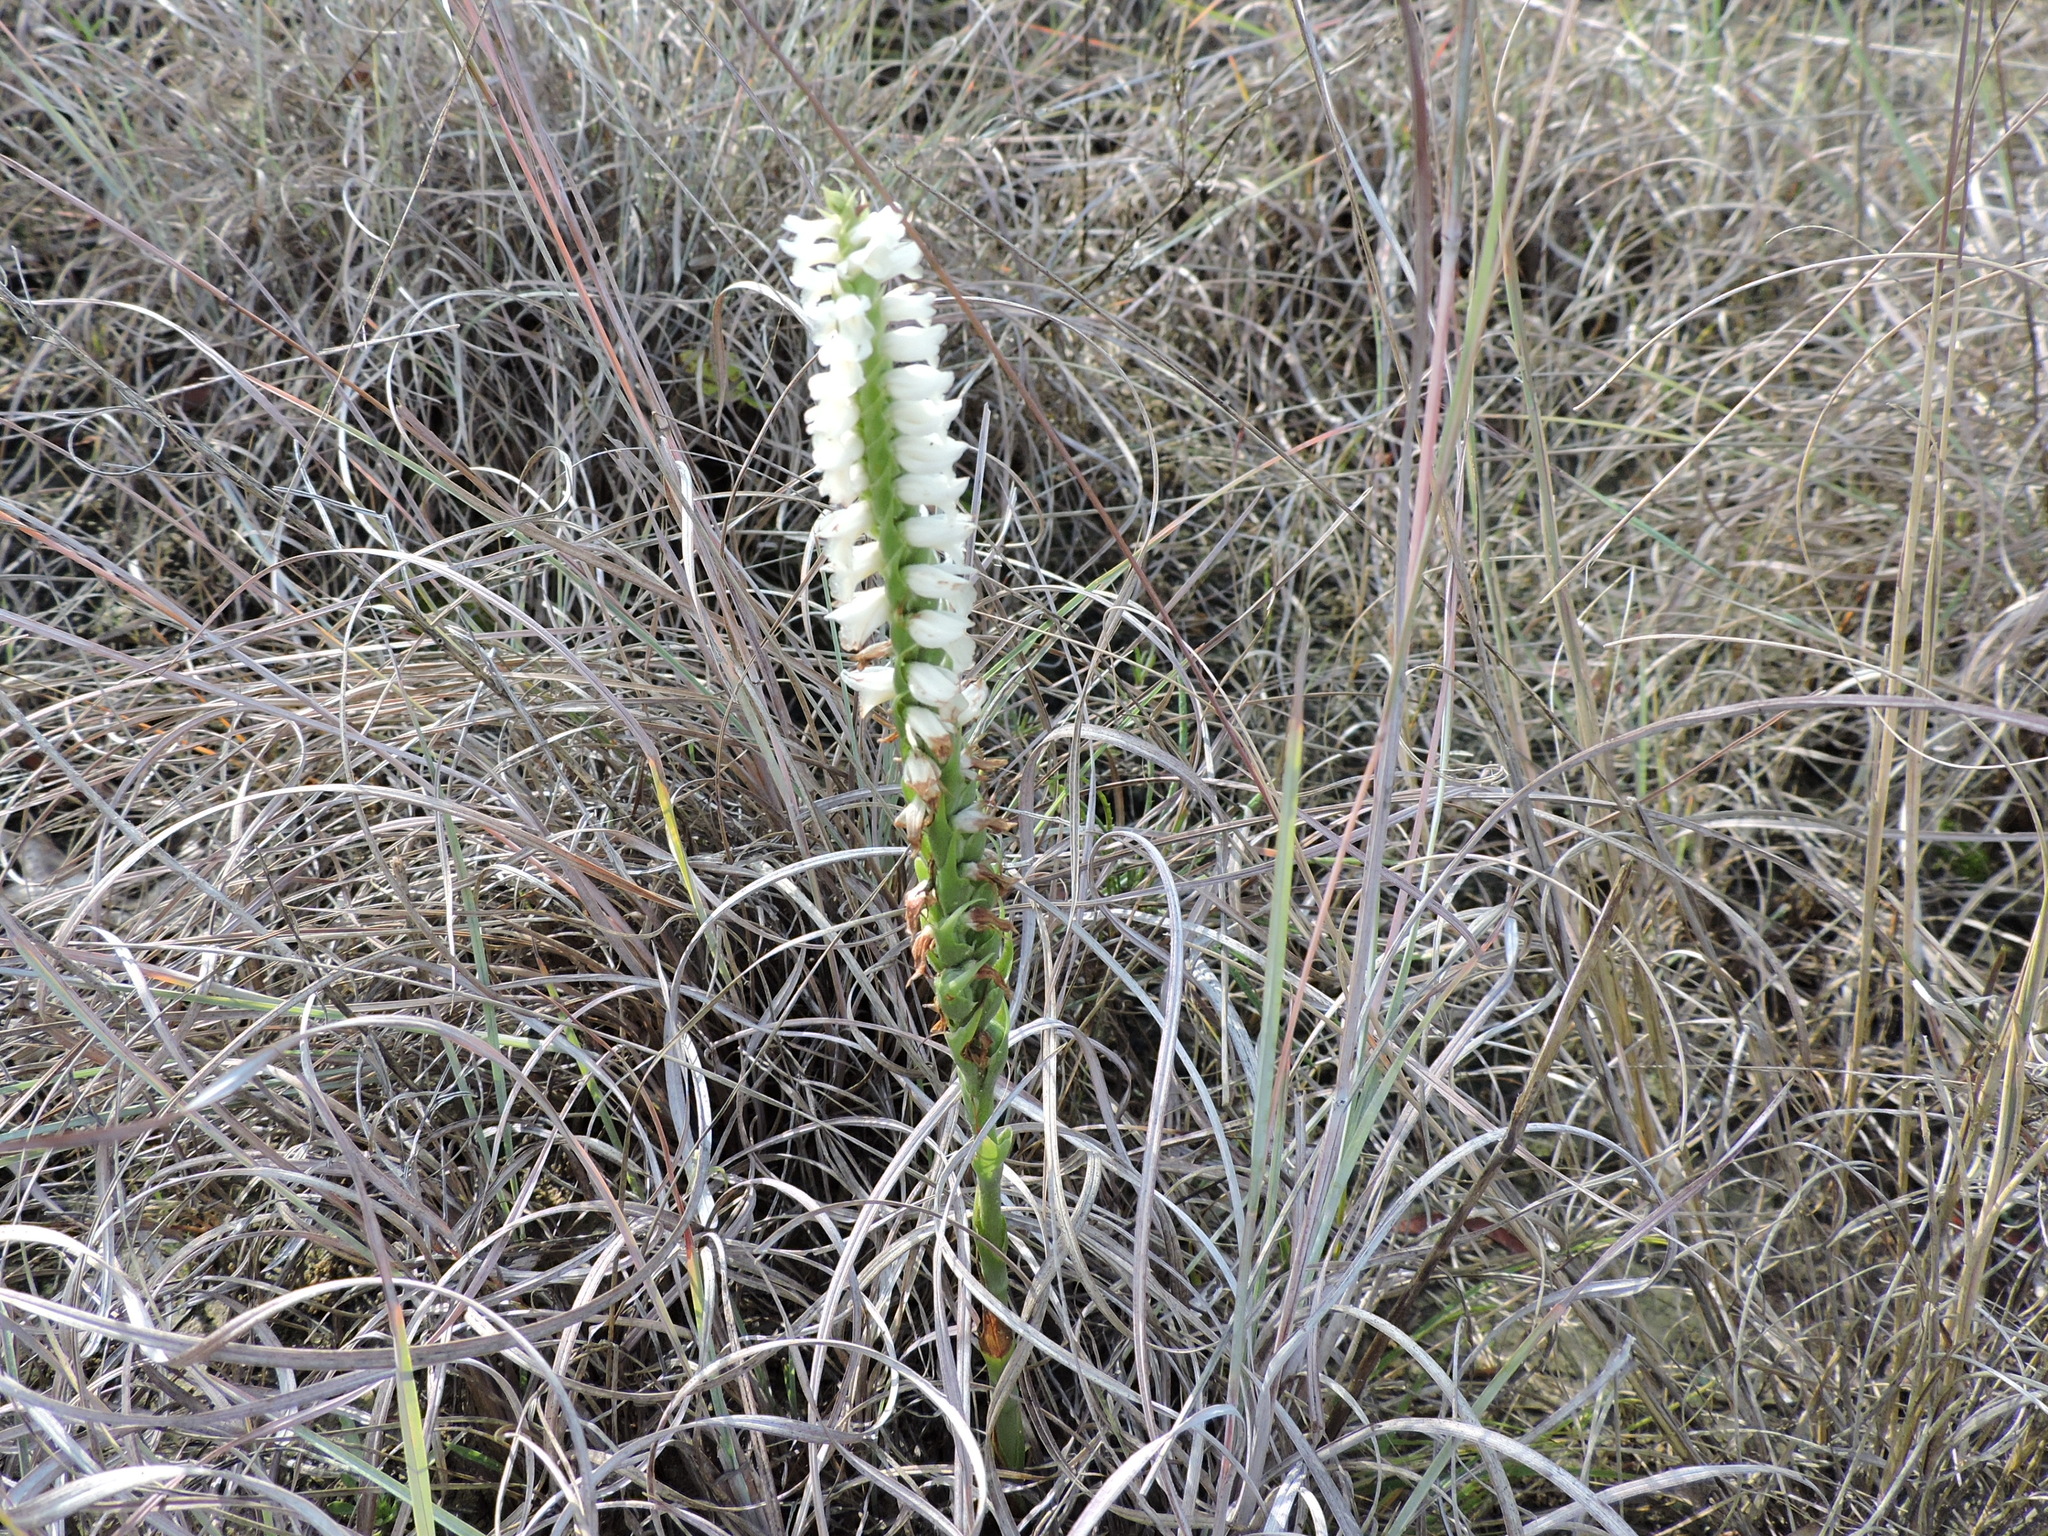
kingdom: Plantae
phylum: Tracheophyta
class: Liliopsida
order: Asparagales
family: Orchidaceae
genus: Spiranthes
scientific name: Spiranthes magnicamporum
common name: Great plains ladies'-tresses
